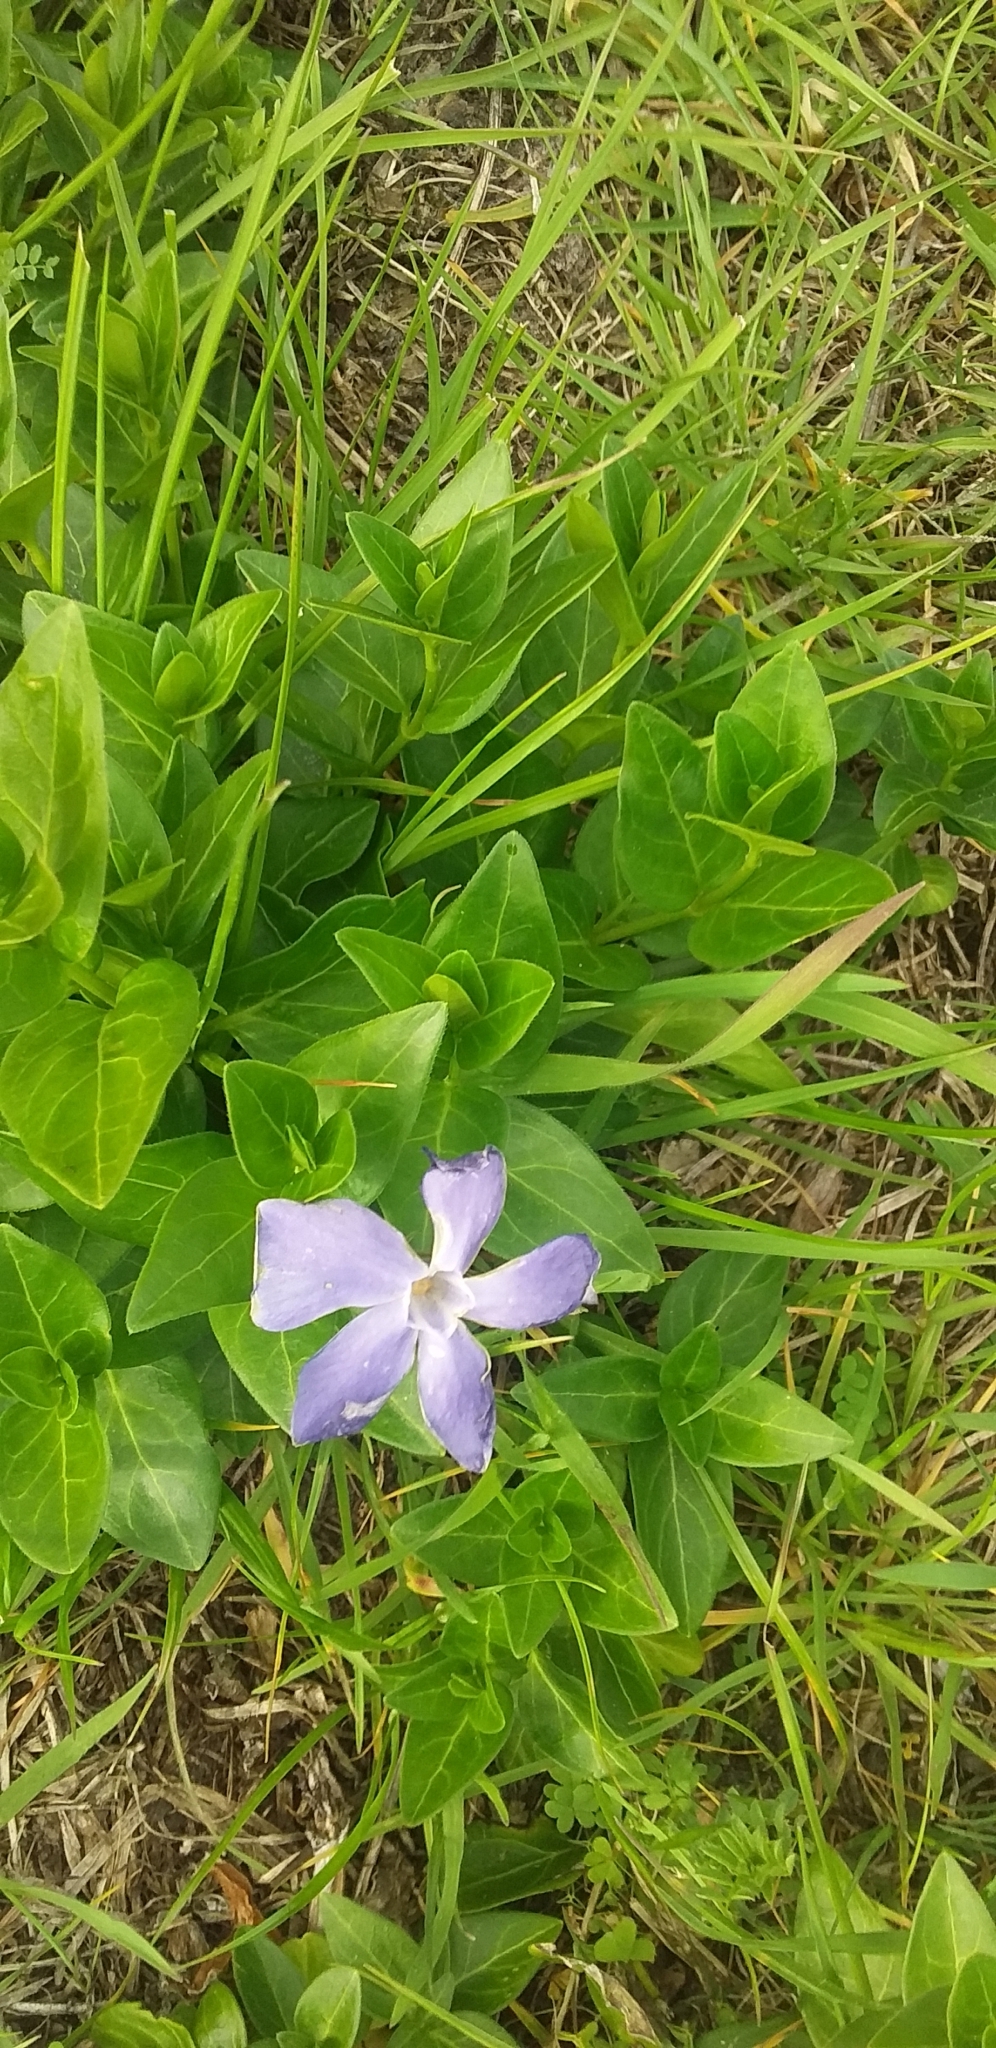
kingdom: Plantae
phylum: Tracheophyta
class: Magnoliopsida
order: Gentianales
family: Apocynaceae
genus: Vinca
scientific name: Vinca major
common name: Greater periwinkle
